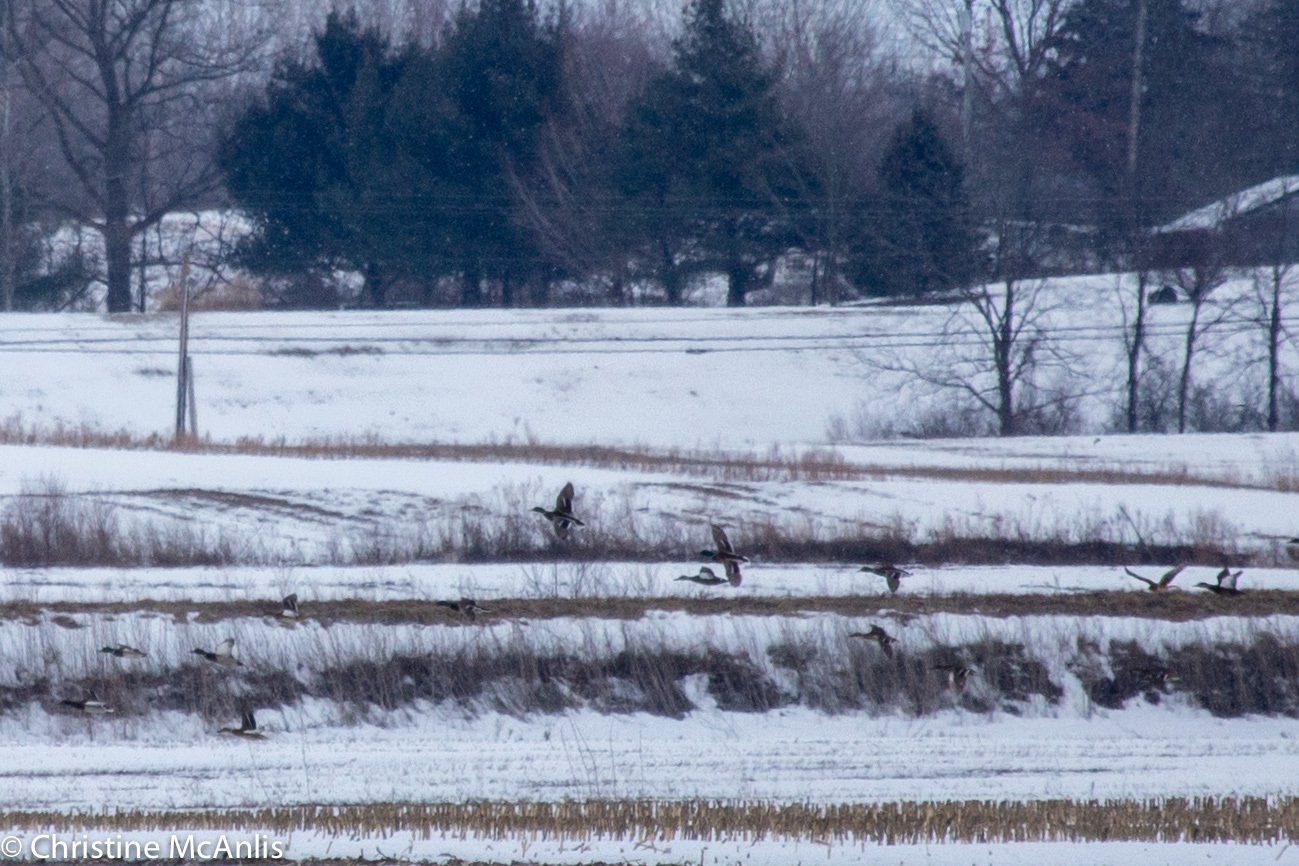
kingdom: Animalia
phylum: Chordata
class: Aves
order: Anseriformes
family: Anatidae
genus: Anas
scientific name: Anas platyrhynchos
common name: Mallard
